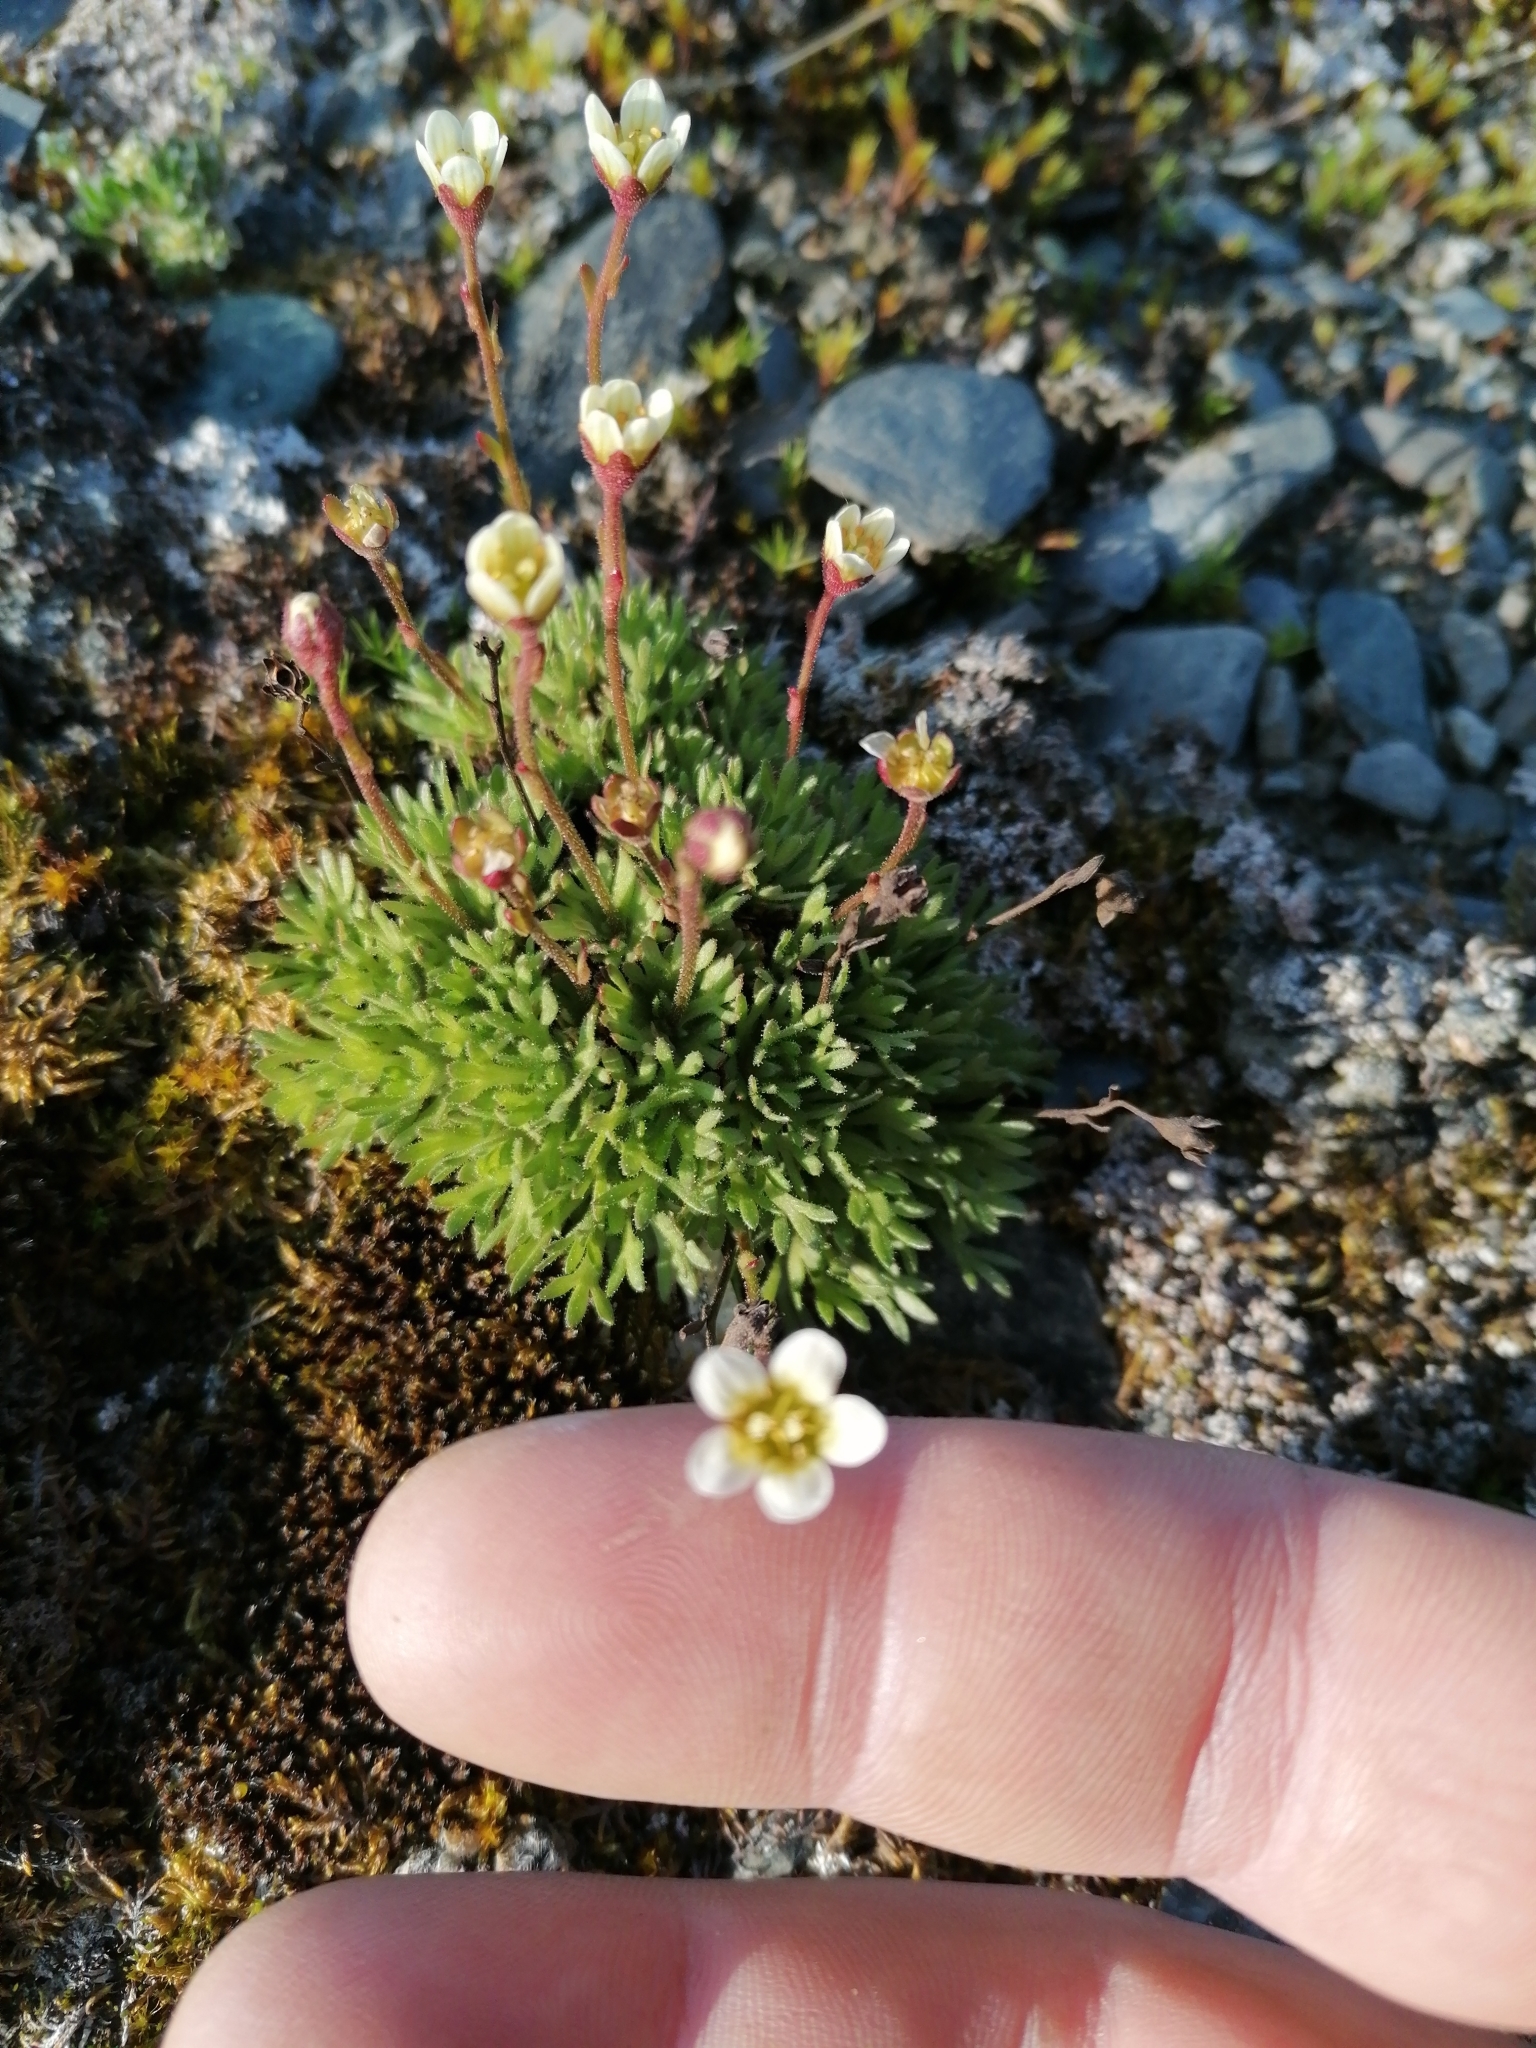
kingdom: Plantae
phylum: Tracheophyta
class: Magnoliopsida
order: Saxifragales
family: Saxifragaceae
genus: Saxifraga
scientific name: Saxifraga cespitosa
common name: Tufted saxifrage
